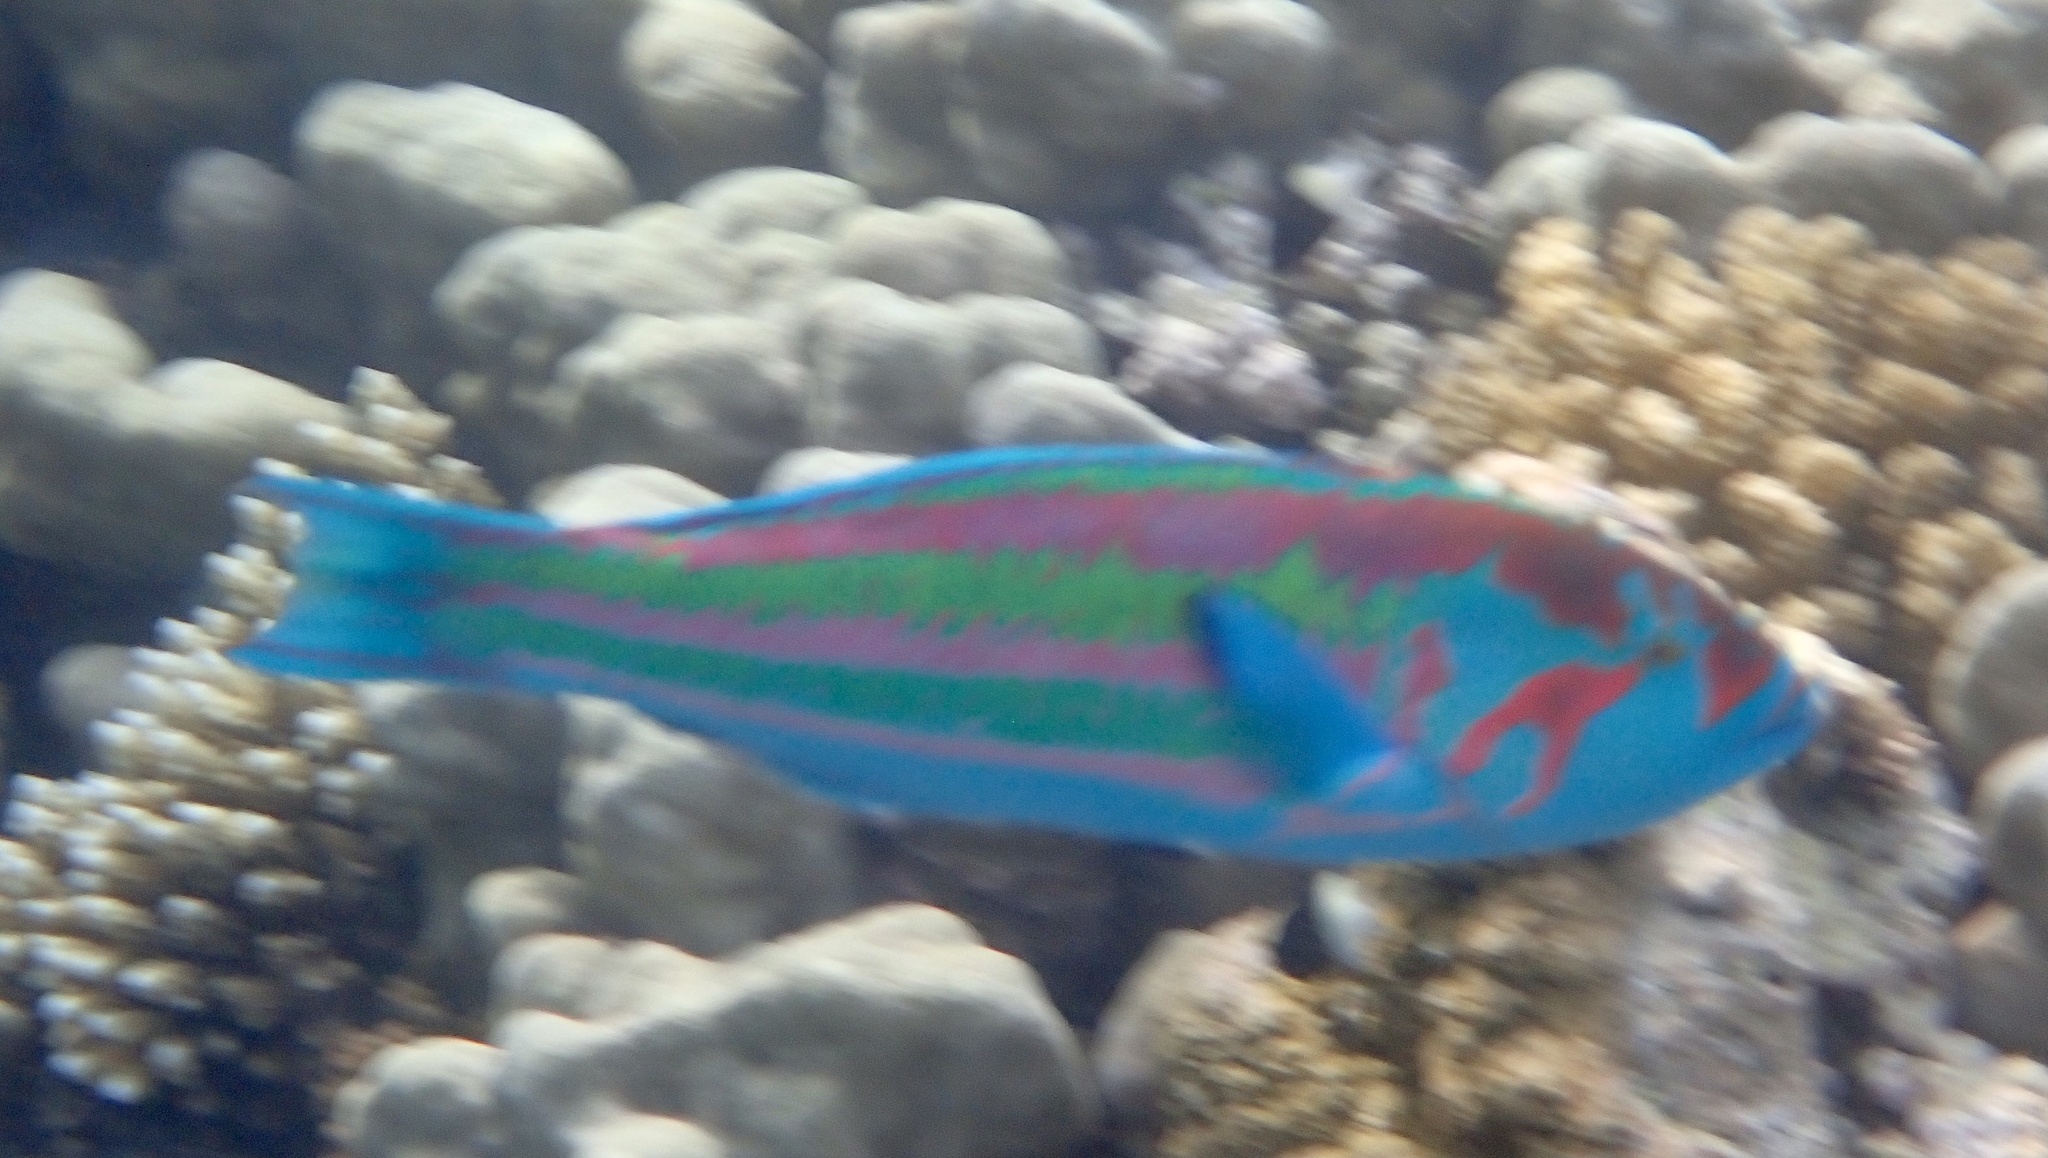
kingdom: Animalia
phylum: Chordata
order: Perciformes
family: Labridae
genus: Thalassoma
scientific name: Thalassoma purpureum
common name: Parrotfish
